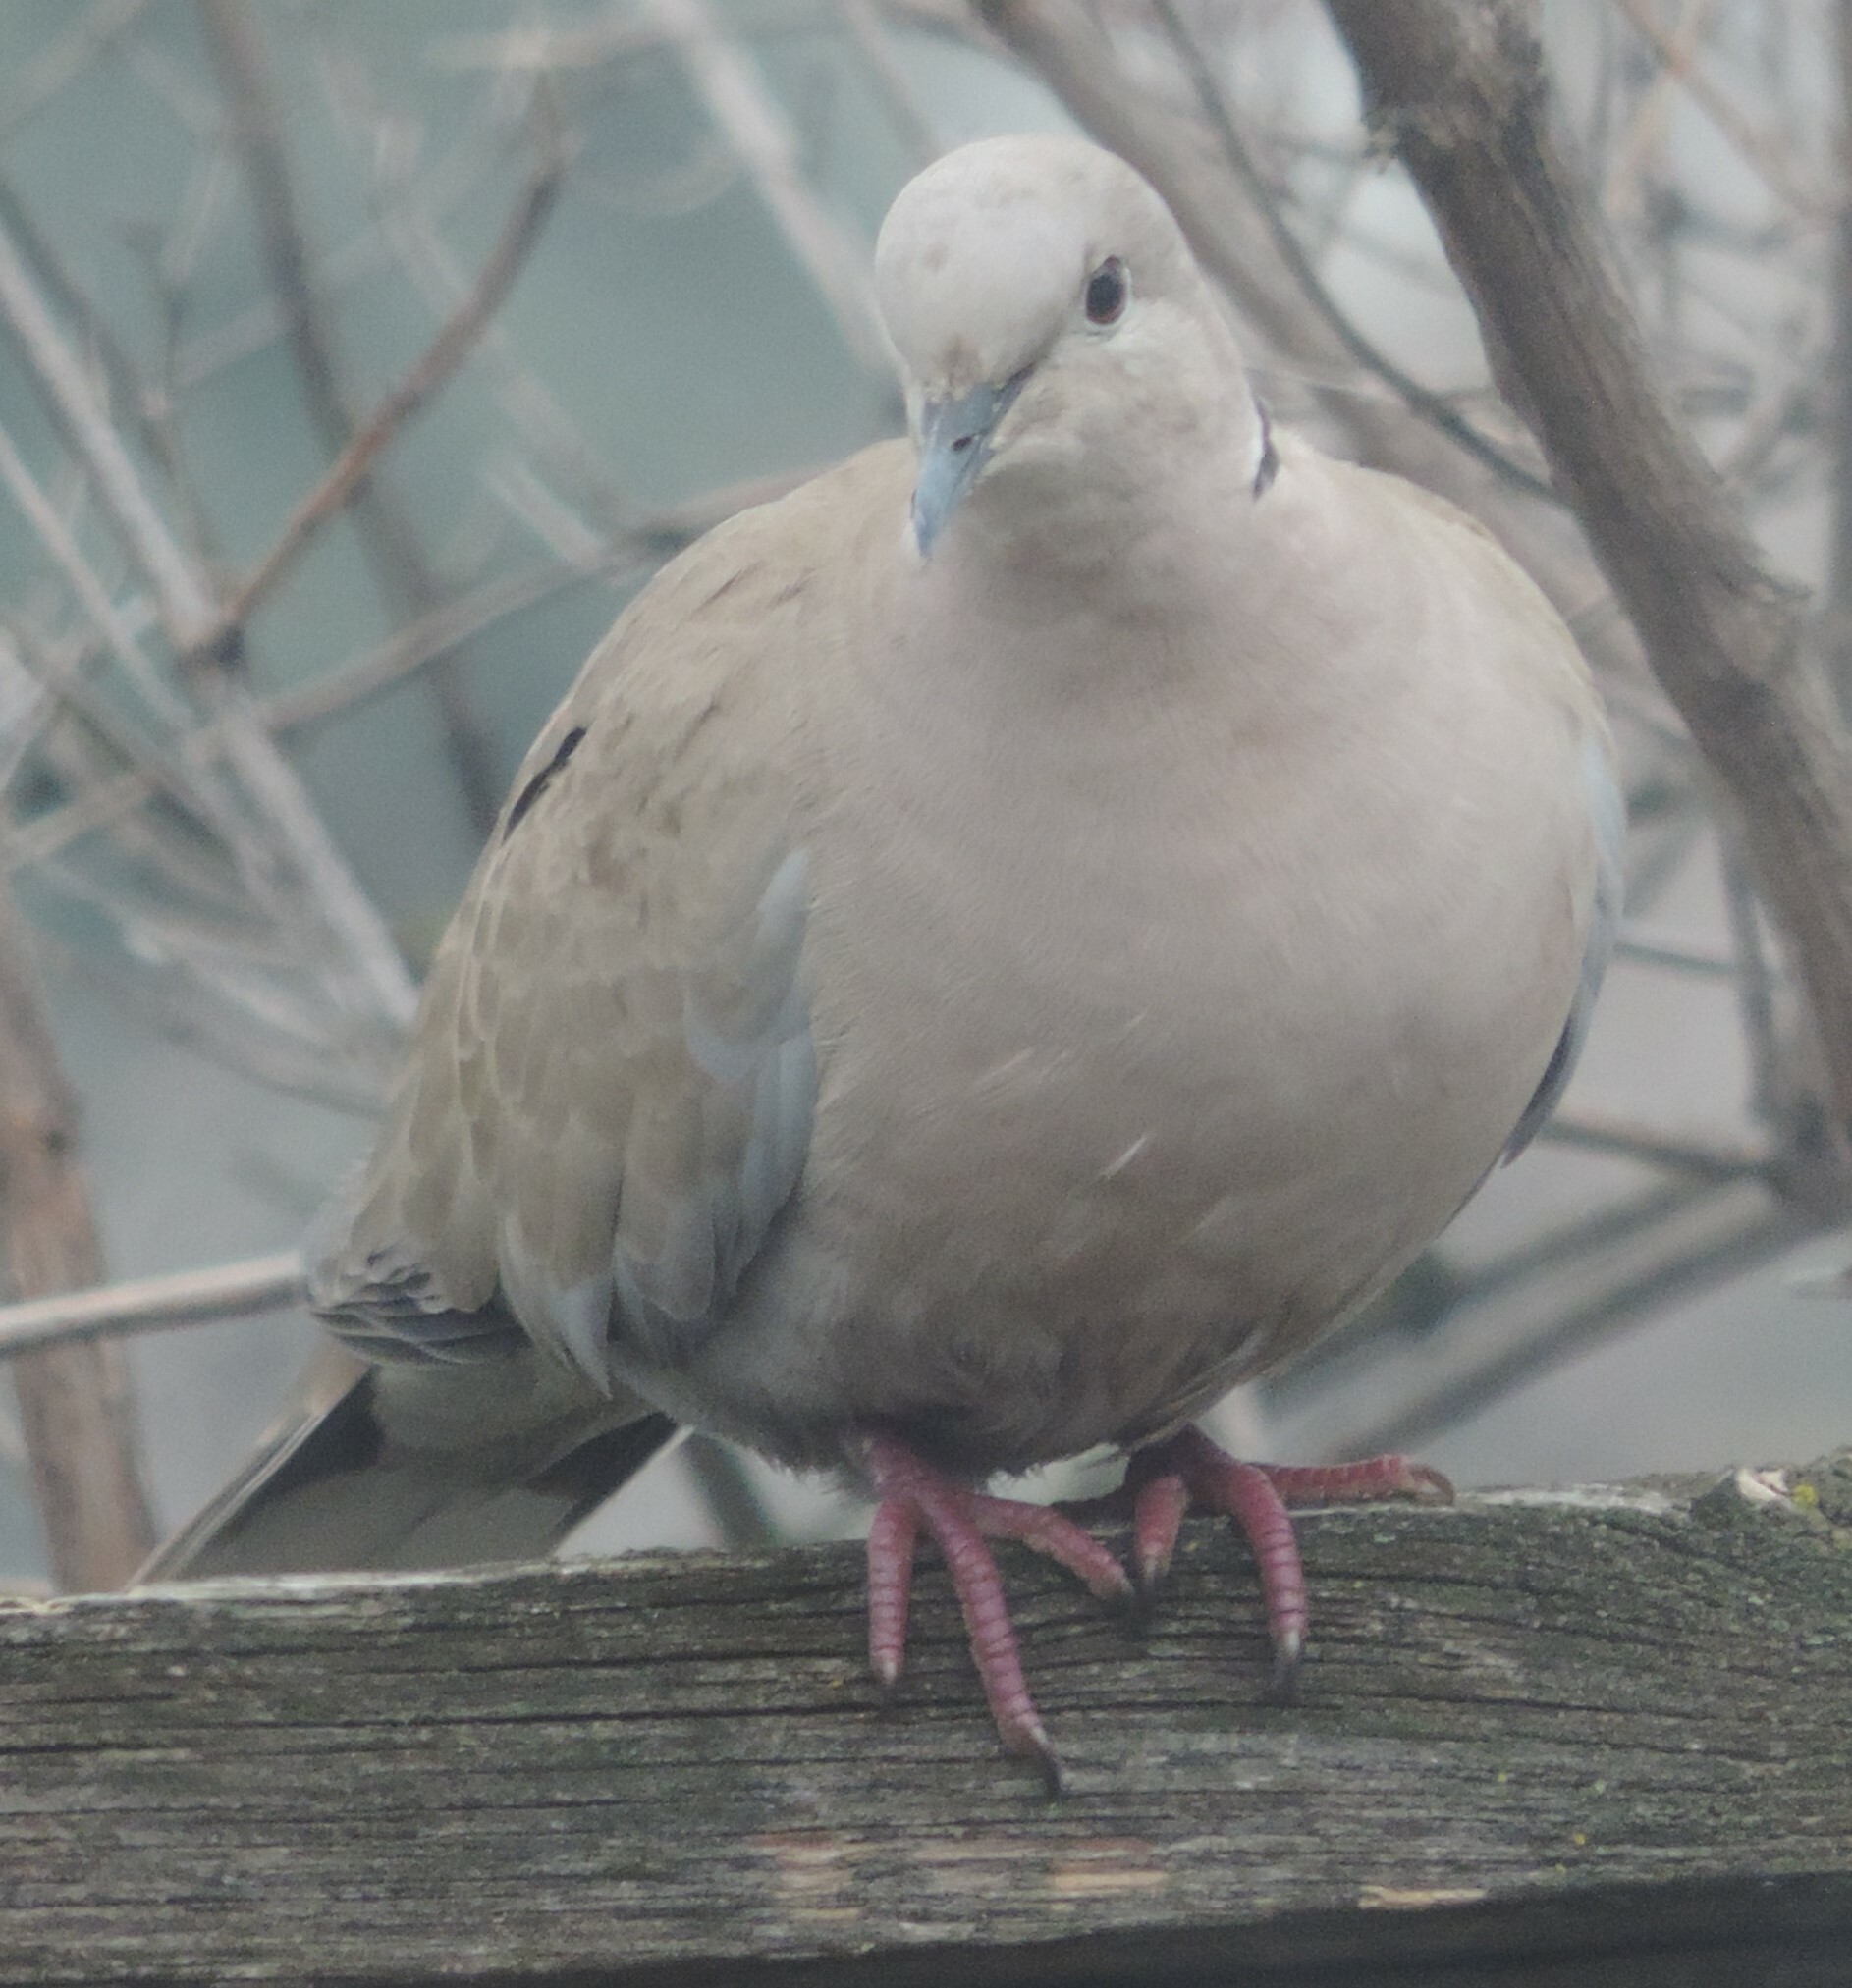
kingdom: Animalia
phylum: Chordata
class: Aves
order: Columbiformes
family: Columbidae
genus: Streptopelia
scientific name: Streptopelia decaocto
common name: Eurasian collared dove
